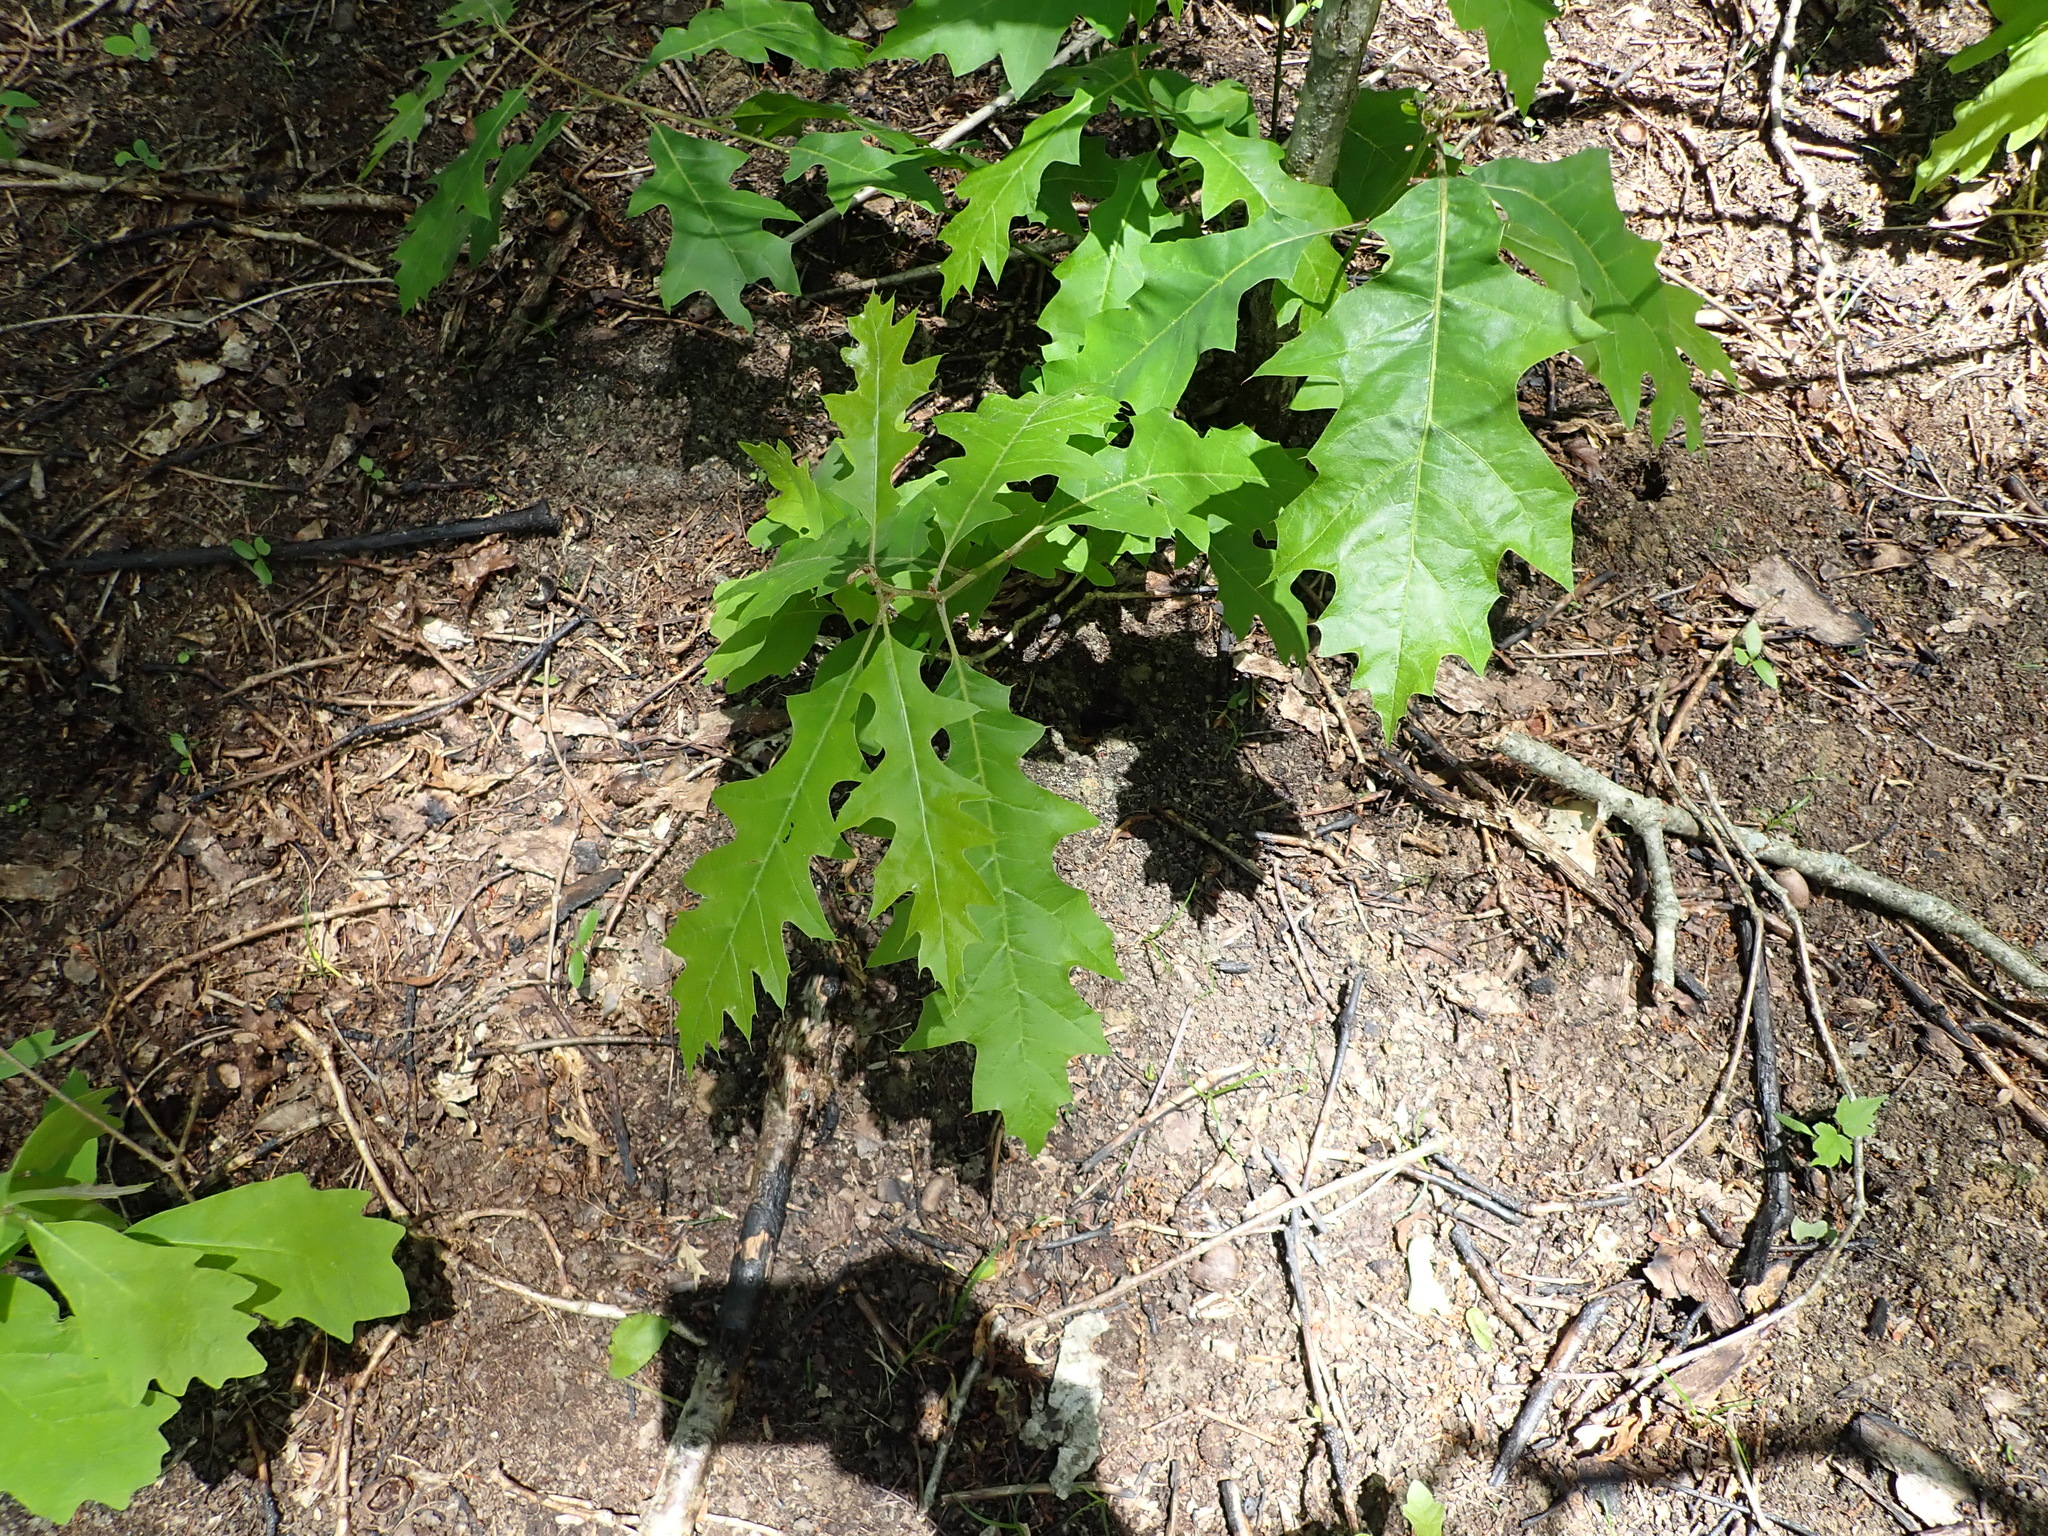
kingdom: Plantae
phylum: Tracheophyta
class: Magnoliopsida
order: Fagales
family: Fagaceae
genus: Quercus
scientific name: Quercus rubra
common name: Red oak
